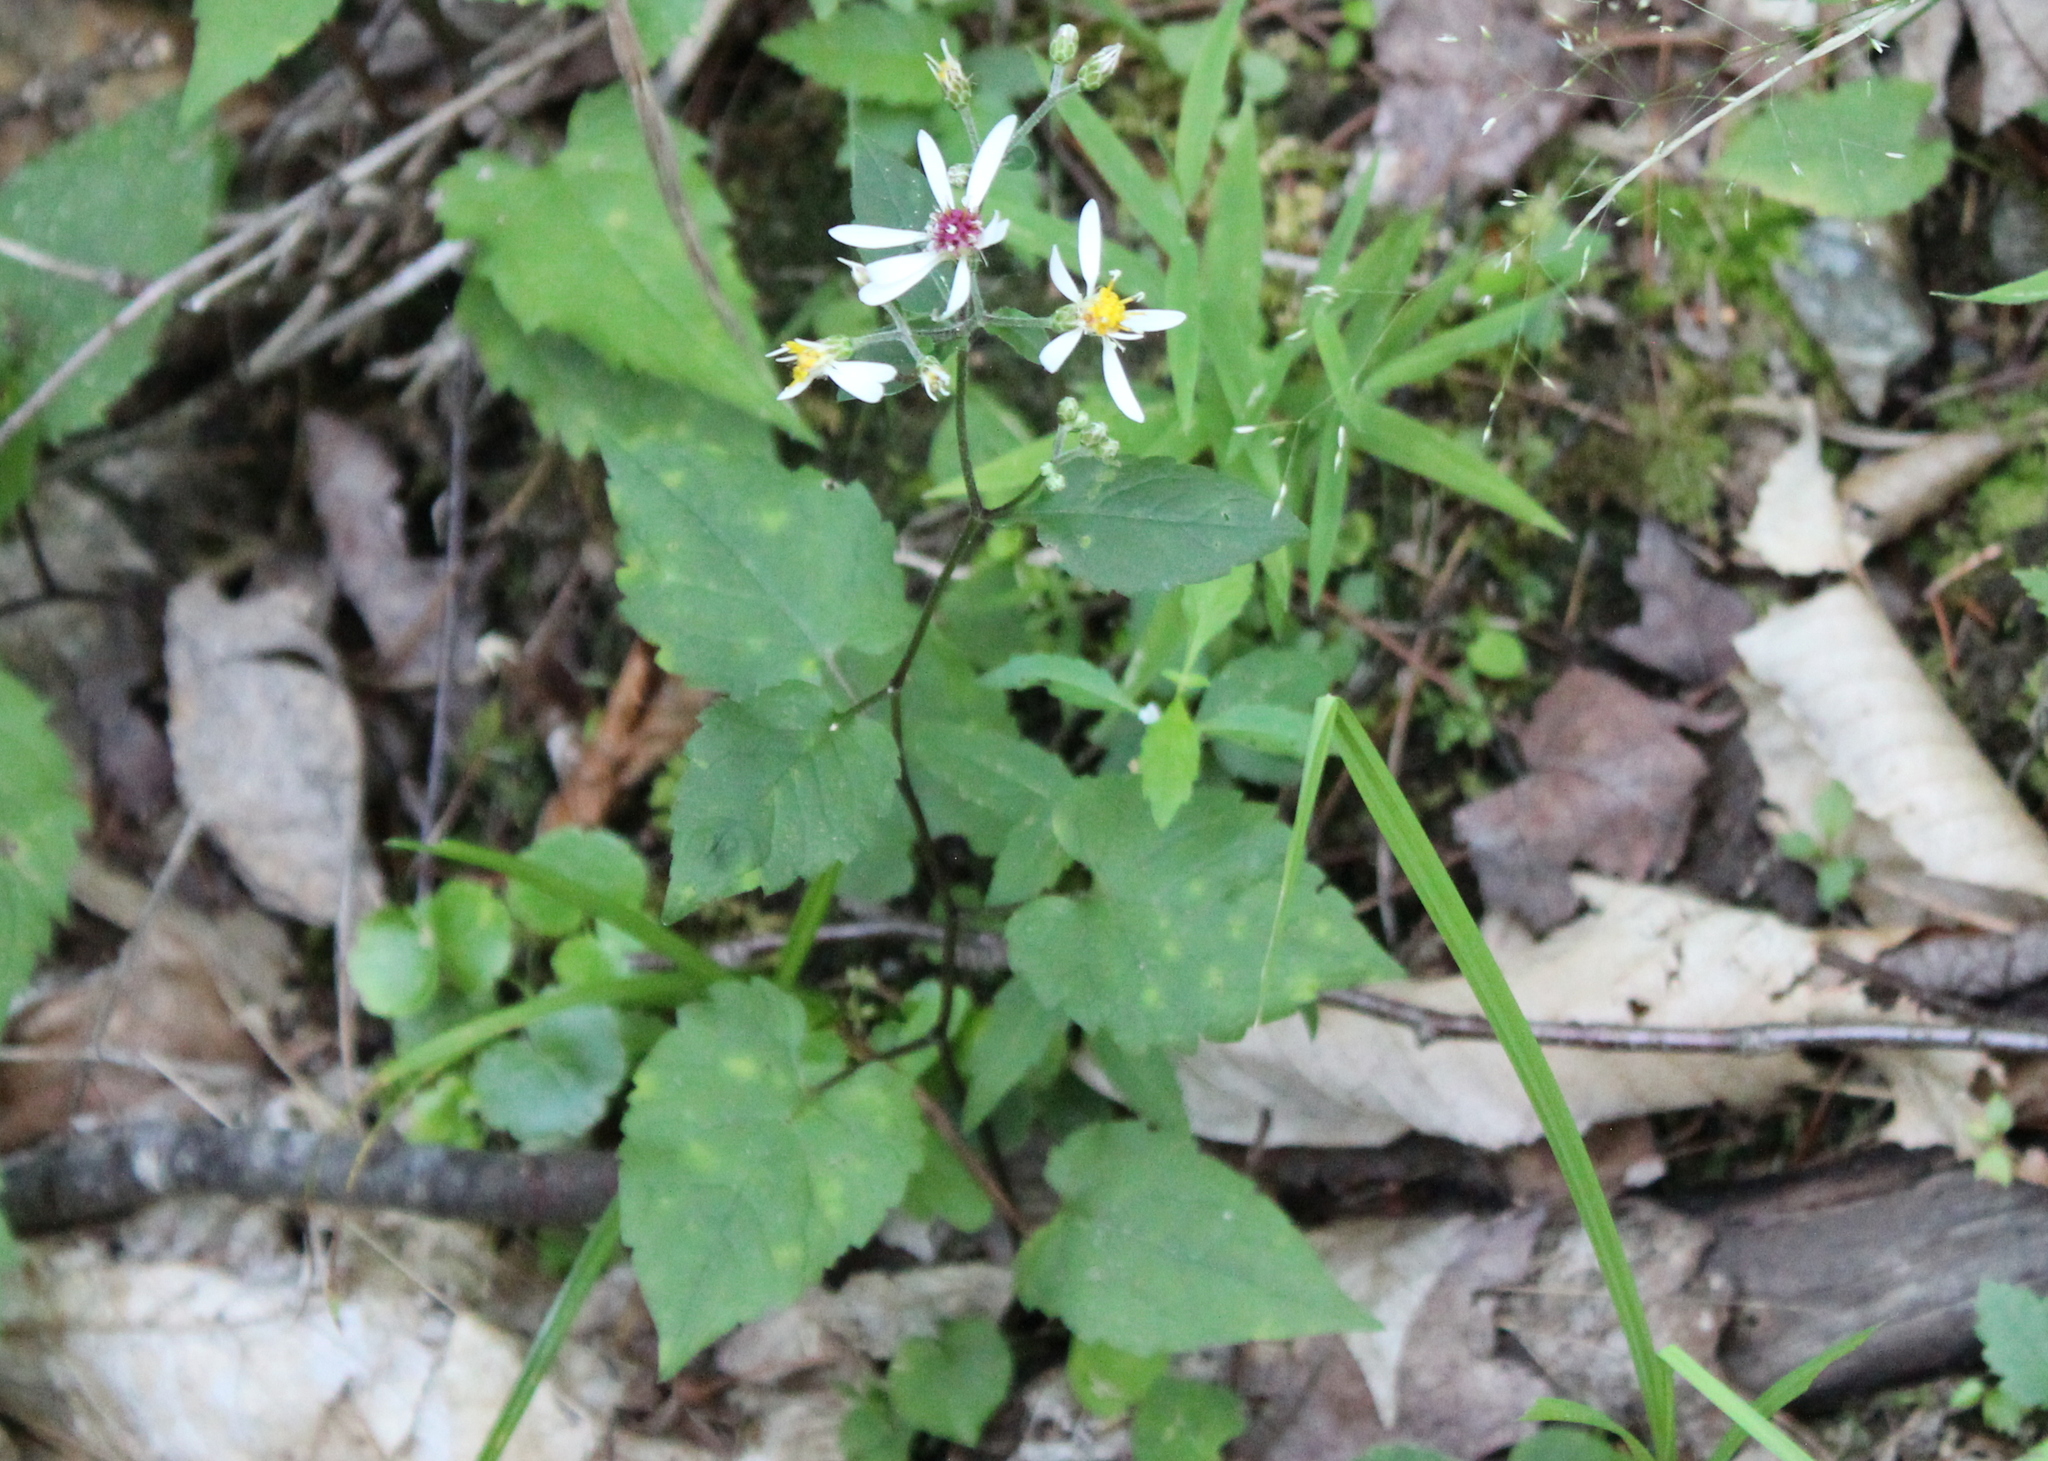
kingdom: Plantae
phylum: Tracheophyta
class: Magnoliopsida
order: Asterales
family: Asteraceae
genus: Eurybia
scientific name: Eurybia divaricata
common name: White wood aster
